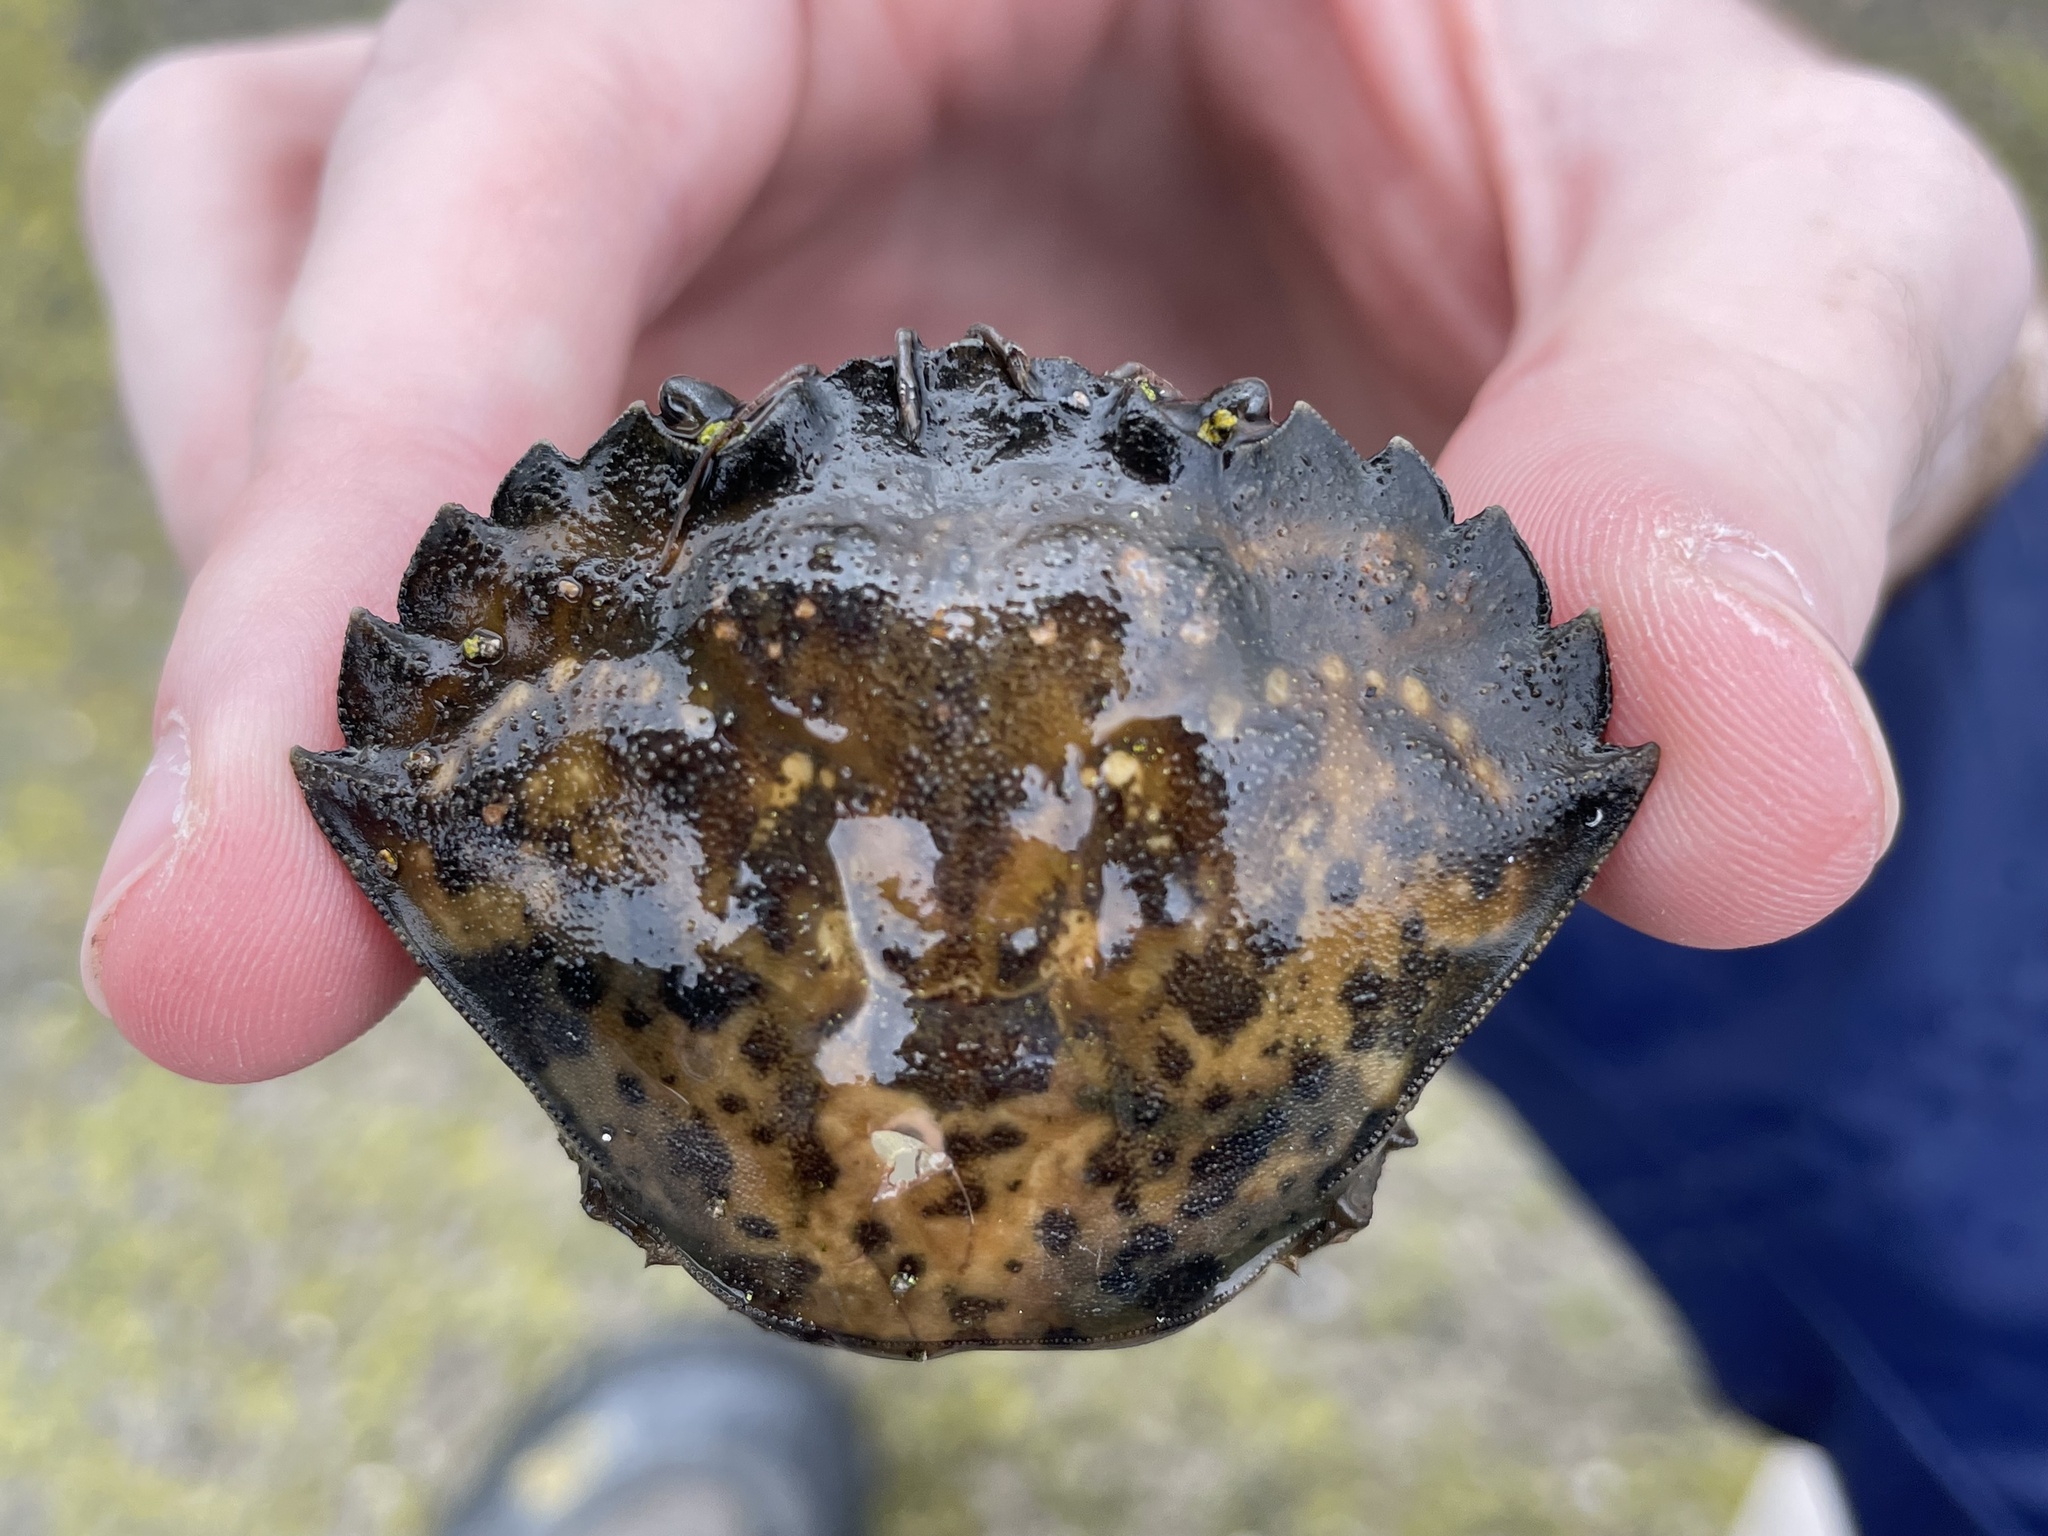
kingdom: Animalia
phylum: Arthropoda
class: Malacostraca
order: Decapoda
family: Carcinidae
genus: Carcinus
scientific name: Carcinus maenas
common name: European green crab
